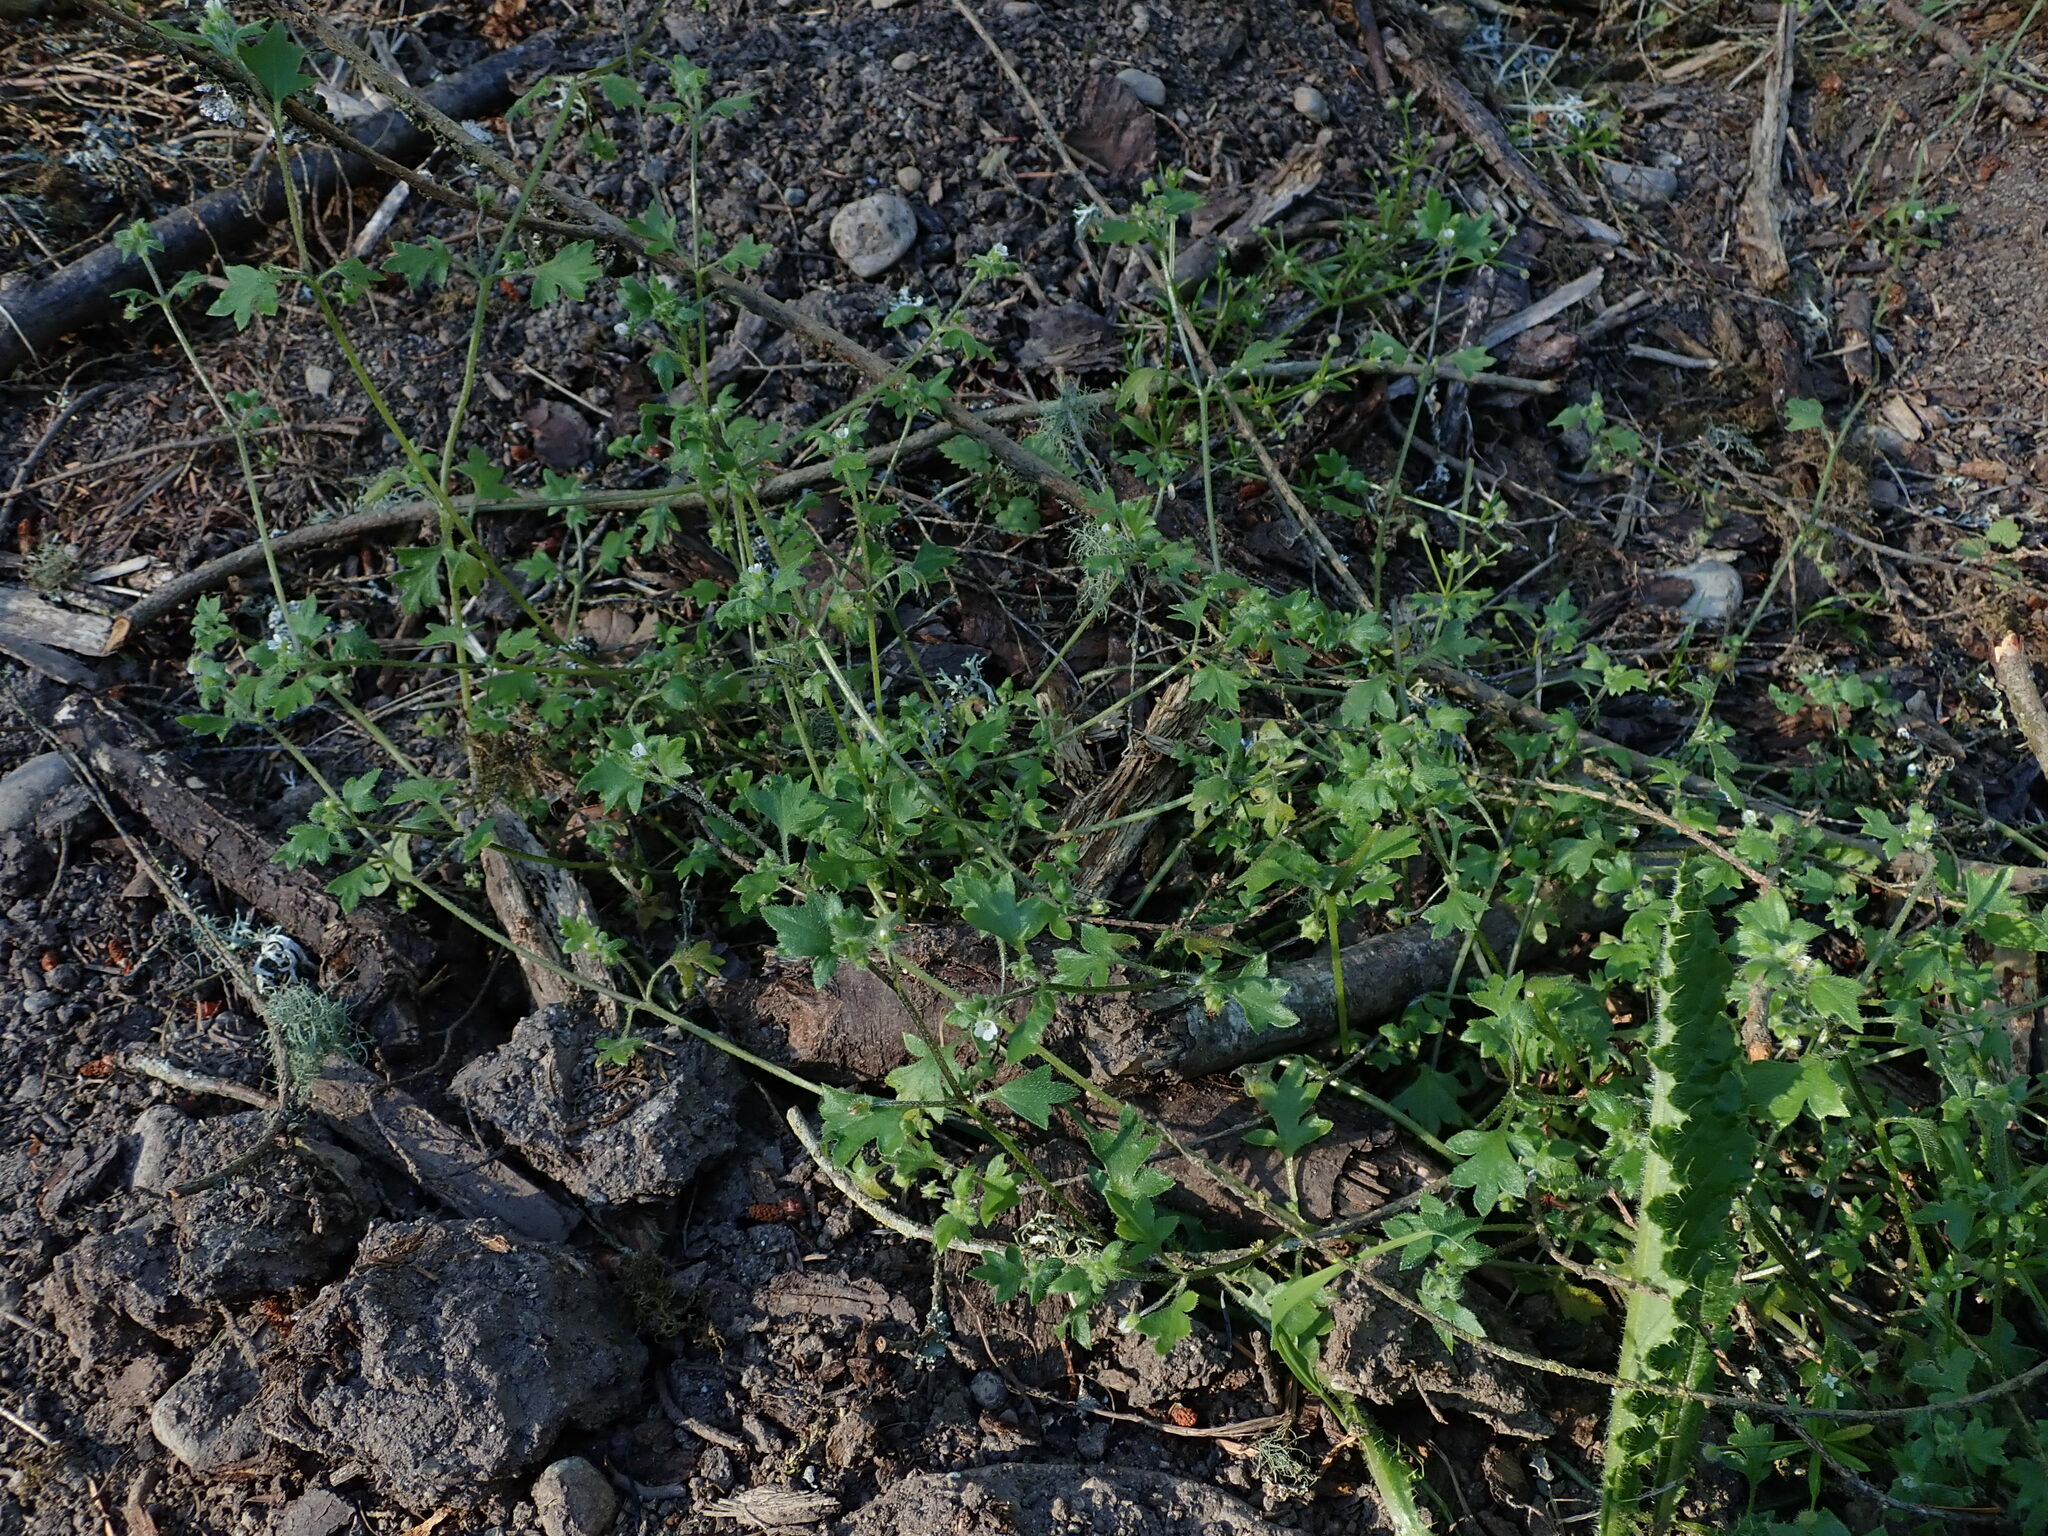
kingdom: Plantae
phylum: Tracheophyta
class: Magnoliopsida
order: Boraginales
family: Hydrophyllaceae
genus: Nemophila
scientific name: Nemophila parviflora
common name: Small-flowered baby-blue-eyes
